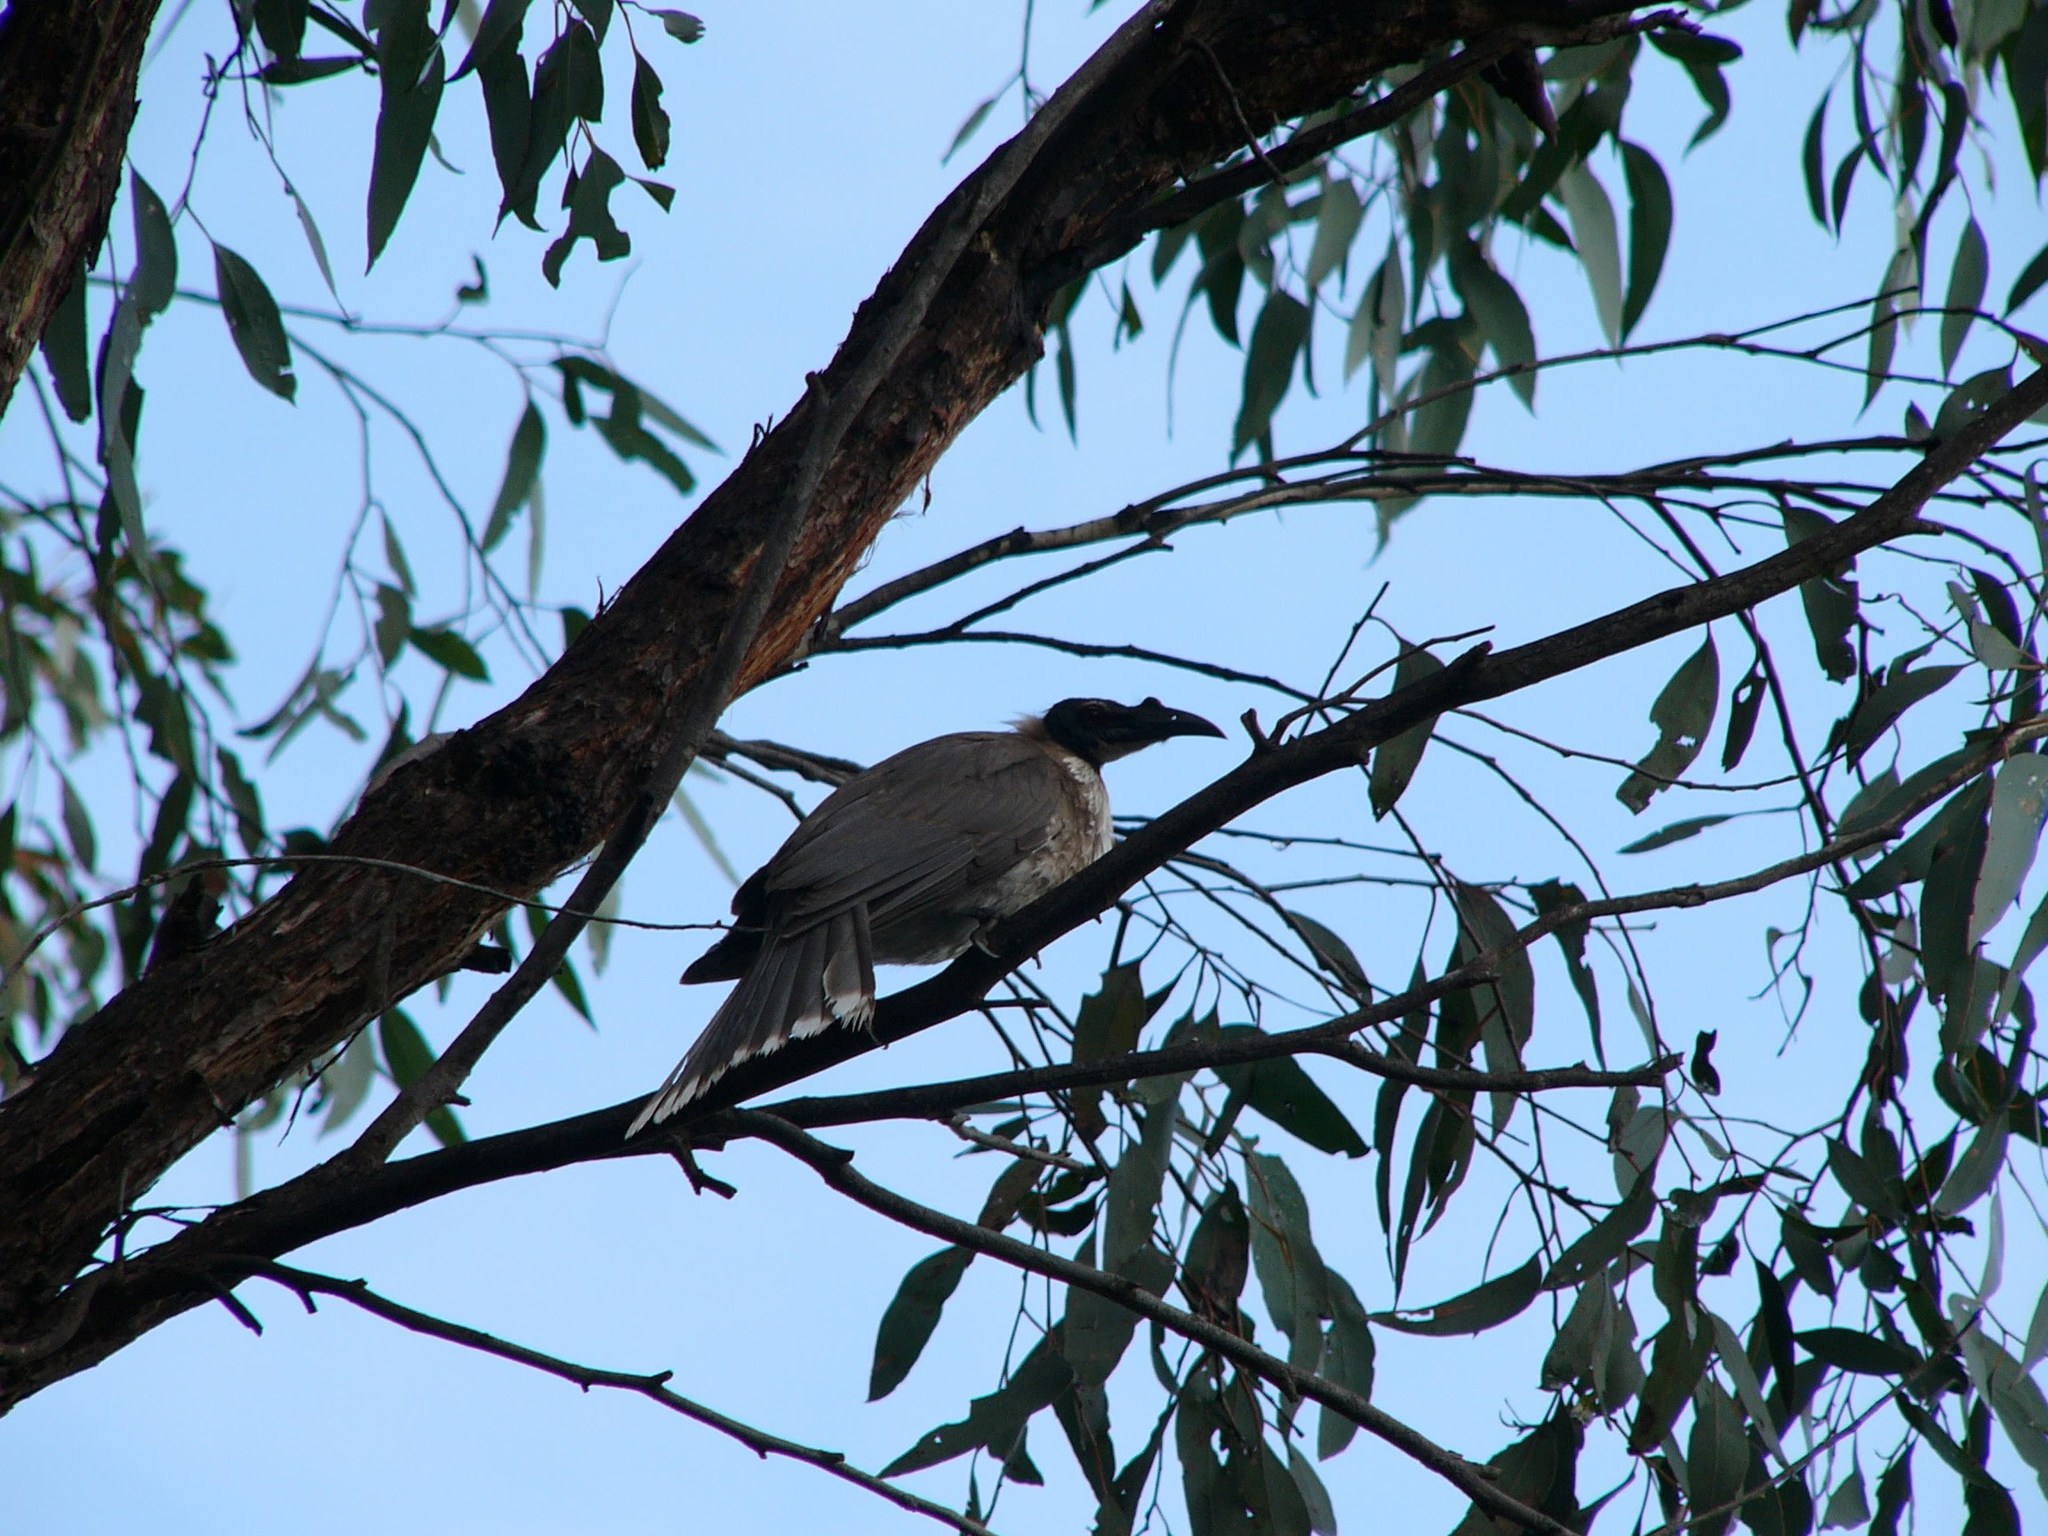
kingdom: Animalia
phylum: Chordata
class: Aves
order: Passeriformes
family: Meliphagidae
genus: Philemon
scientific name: Philemon corniculatus
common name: Noisy friarbird
